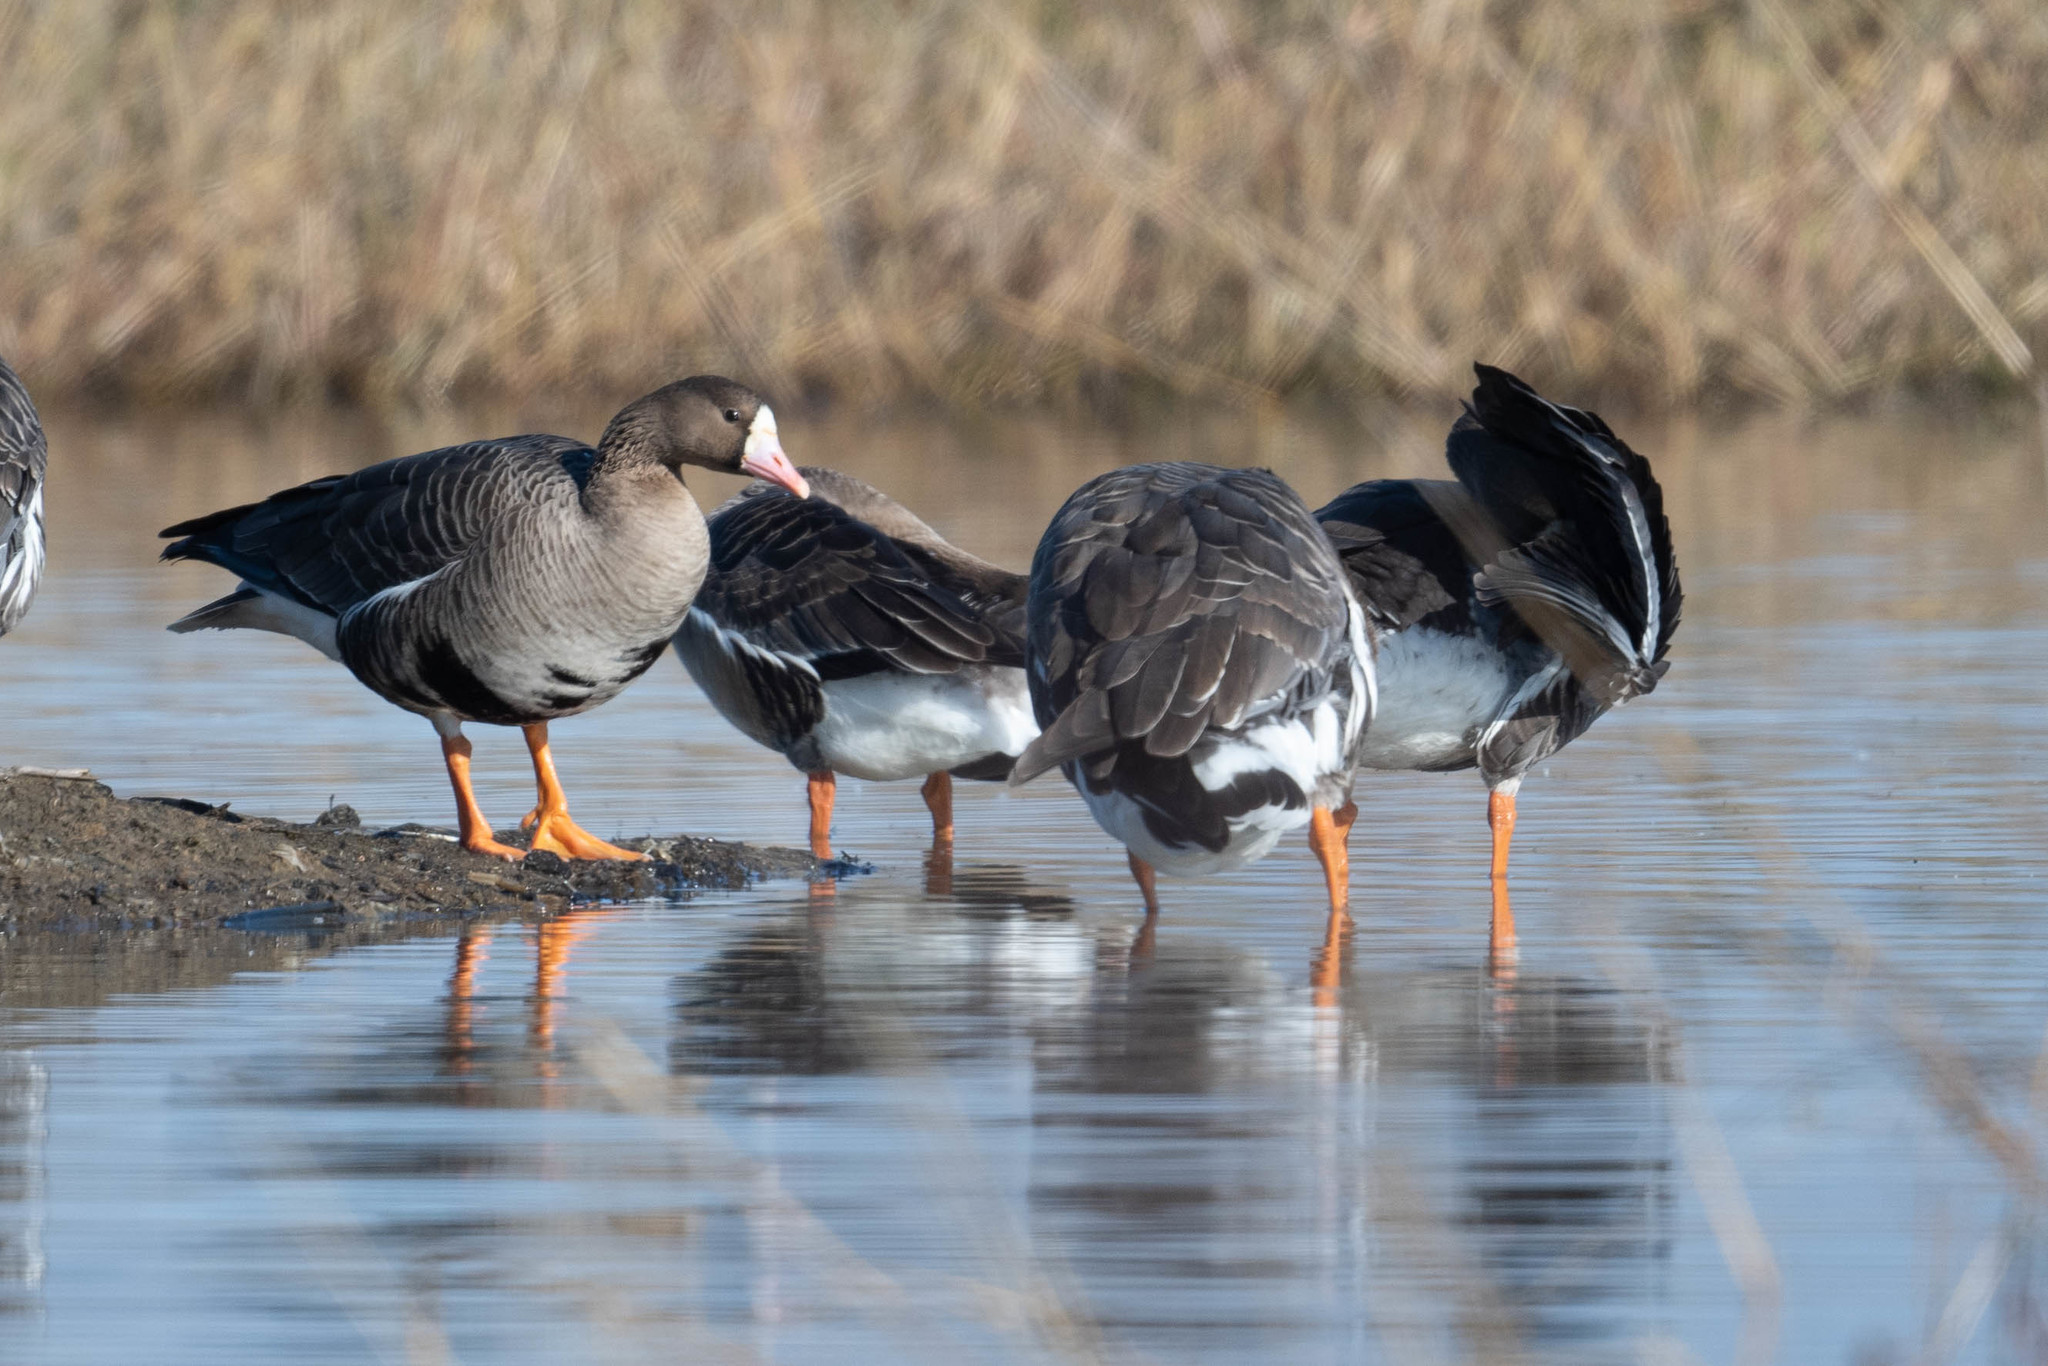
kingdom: Animalia
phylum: Chordata
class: Aves
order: Anseriformes
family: Anatidae
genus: Anser
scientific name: Anser albifrons
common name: Greater white-fronted goose
